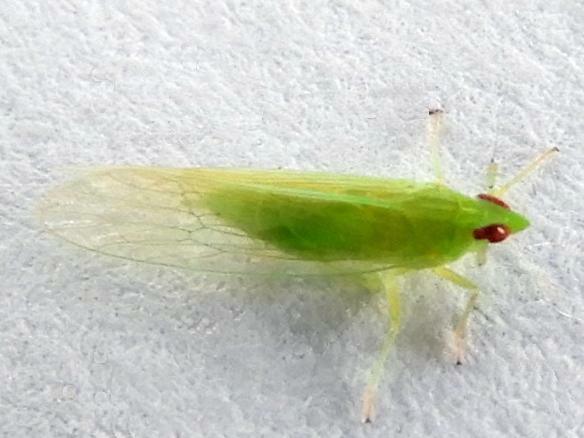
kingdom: Animalia
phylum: Arthropoda
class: Insecta
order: Hemiptera
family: Delphacidae
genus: Saccharosydne
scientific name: Saccharosydne saccharivora
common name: Delphacid planthopper
